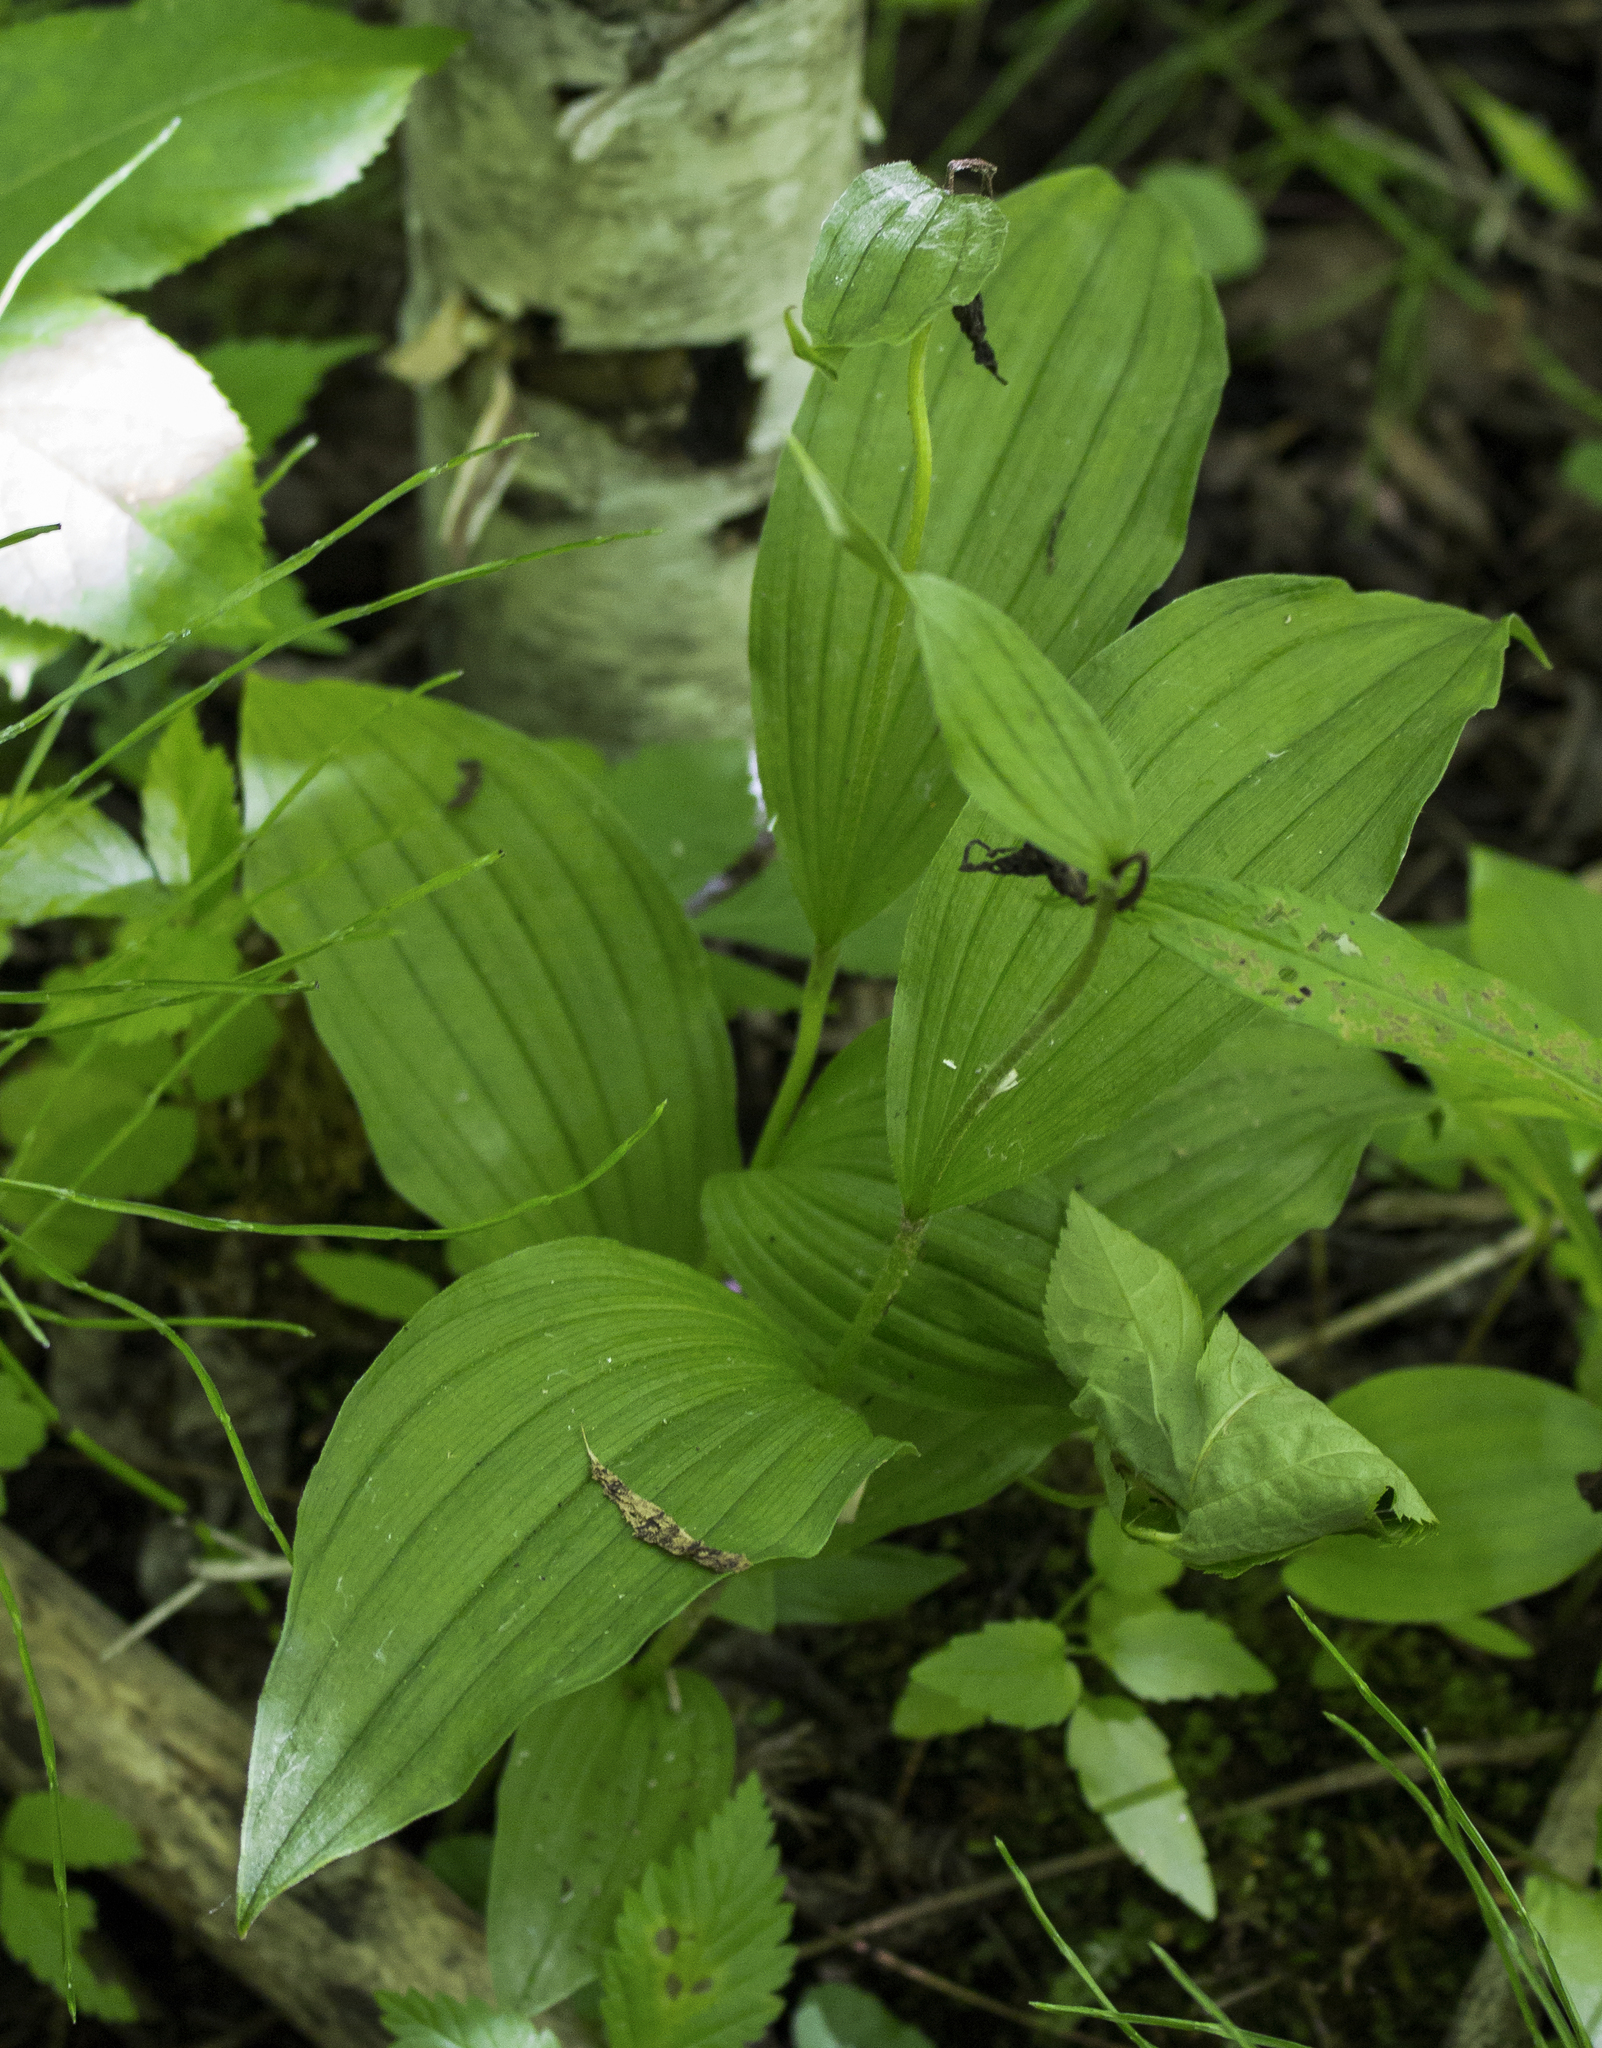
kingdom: Plantae
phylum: Tracheophyta
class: Liliopsida
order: Asparagales
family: Orchidaceae
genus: Cypripedium
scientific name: Cypripedium parviflorum
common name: American yellow lady's-slipper
